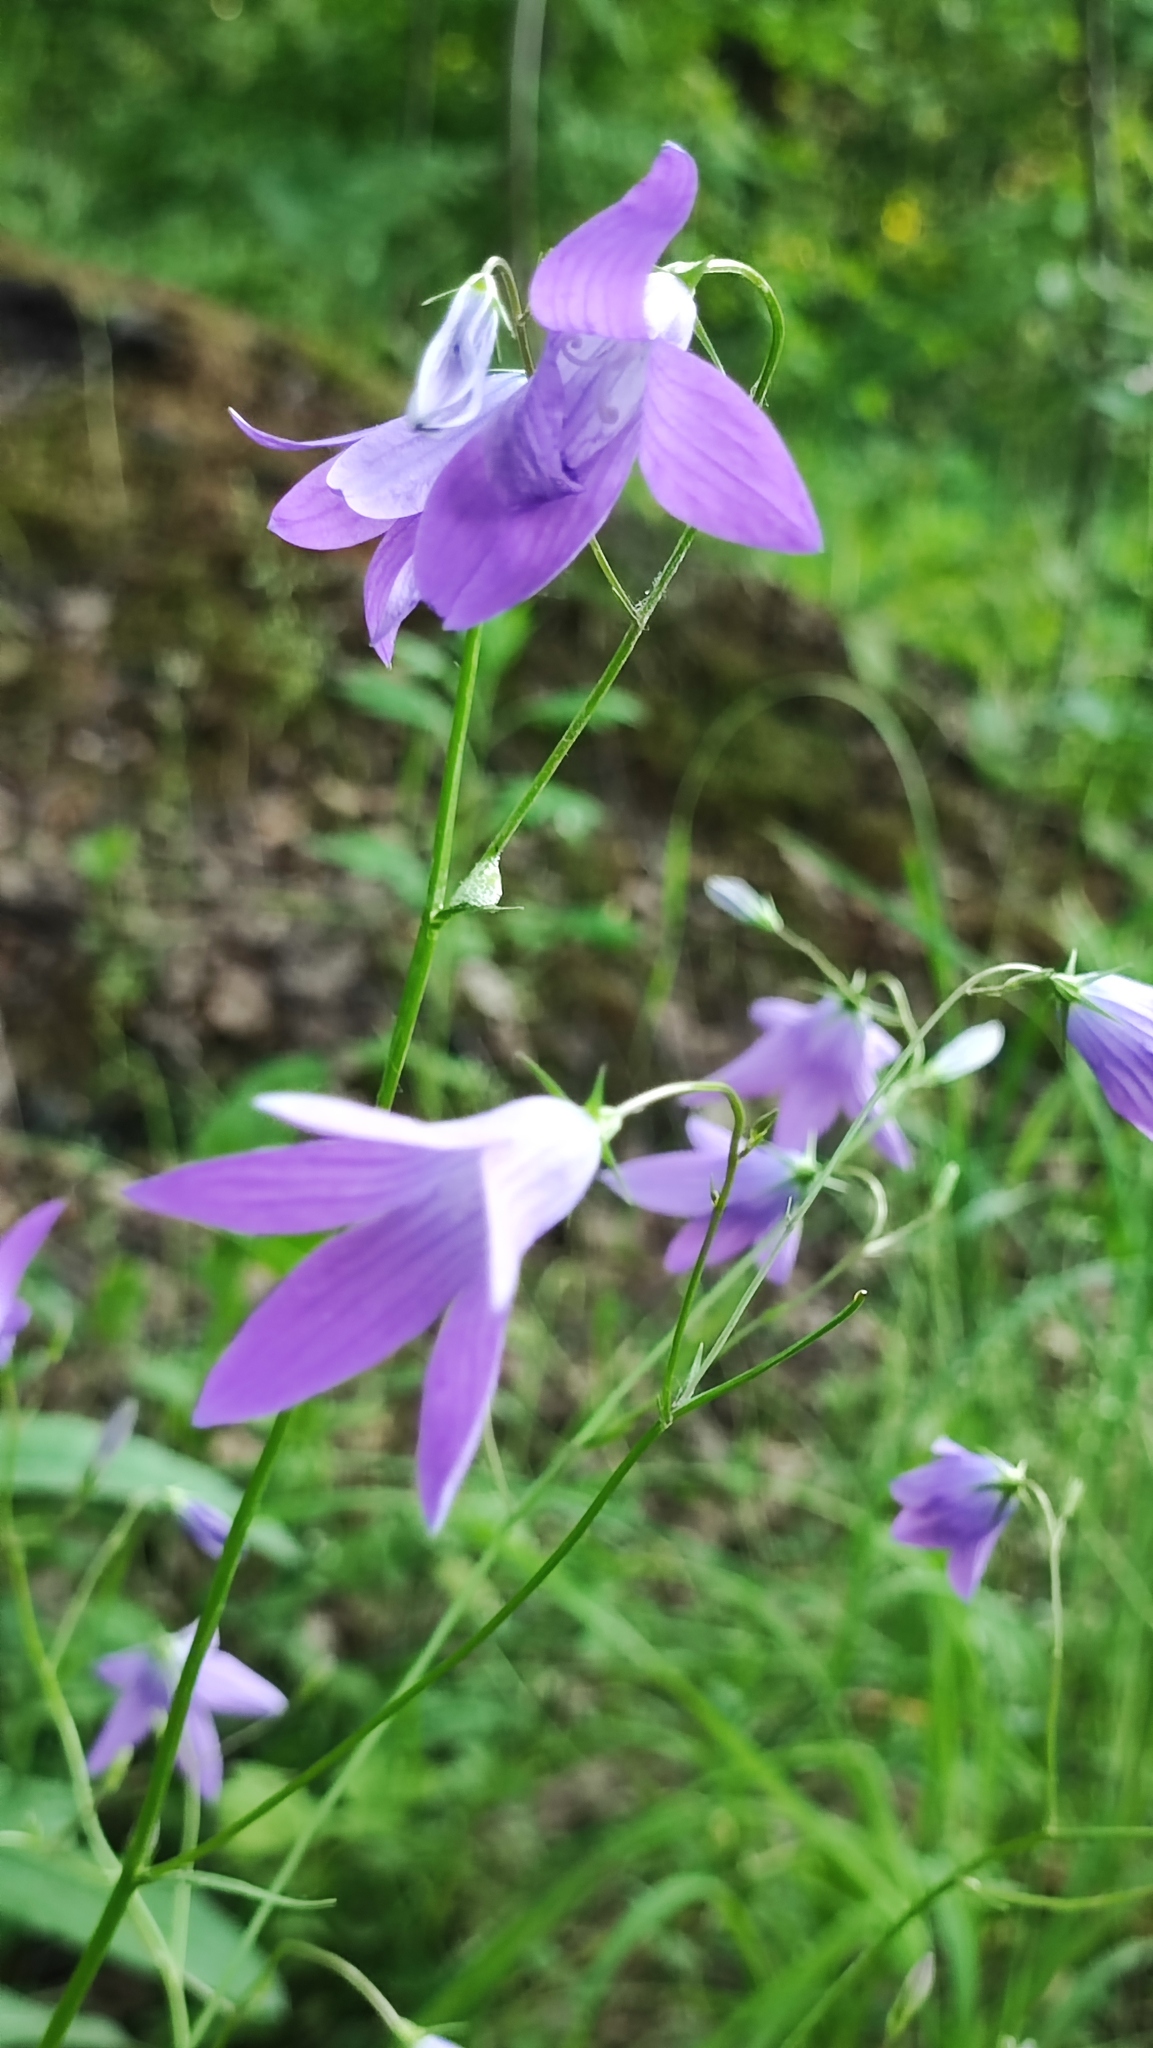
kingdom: Plantae
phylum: Tracheophyta
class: Magnoliopsida
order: Asterales
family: Campanulaceae
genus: Campanula
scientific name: Campanula patula
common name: Spreading bellflower
